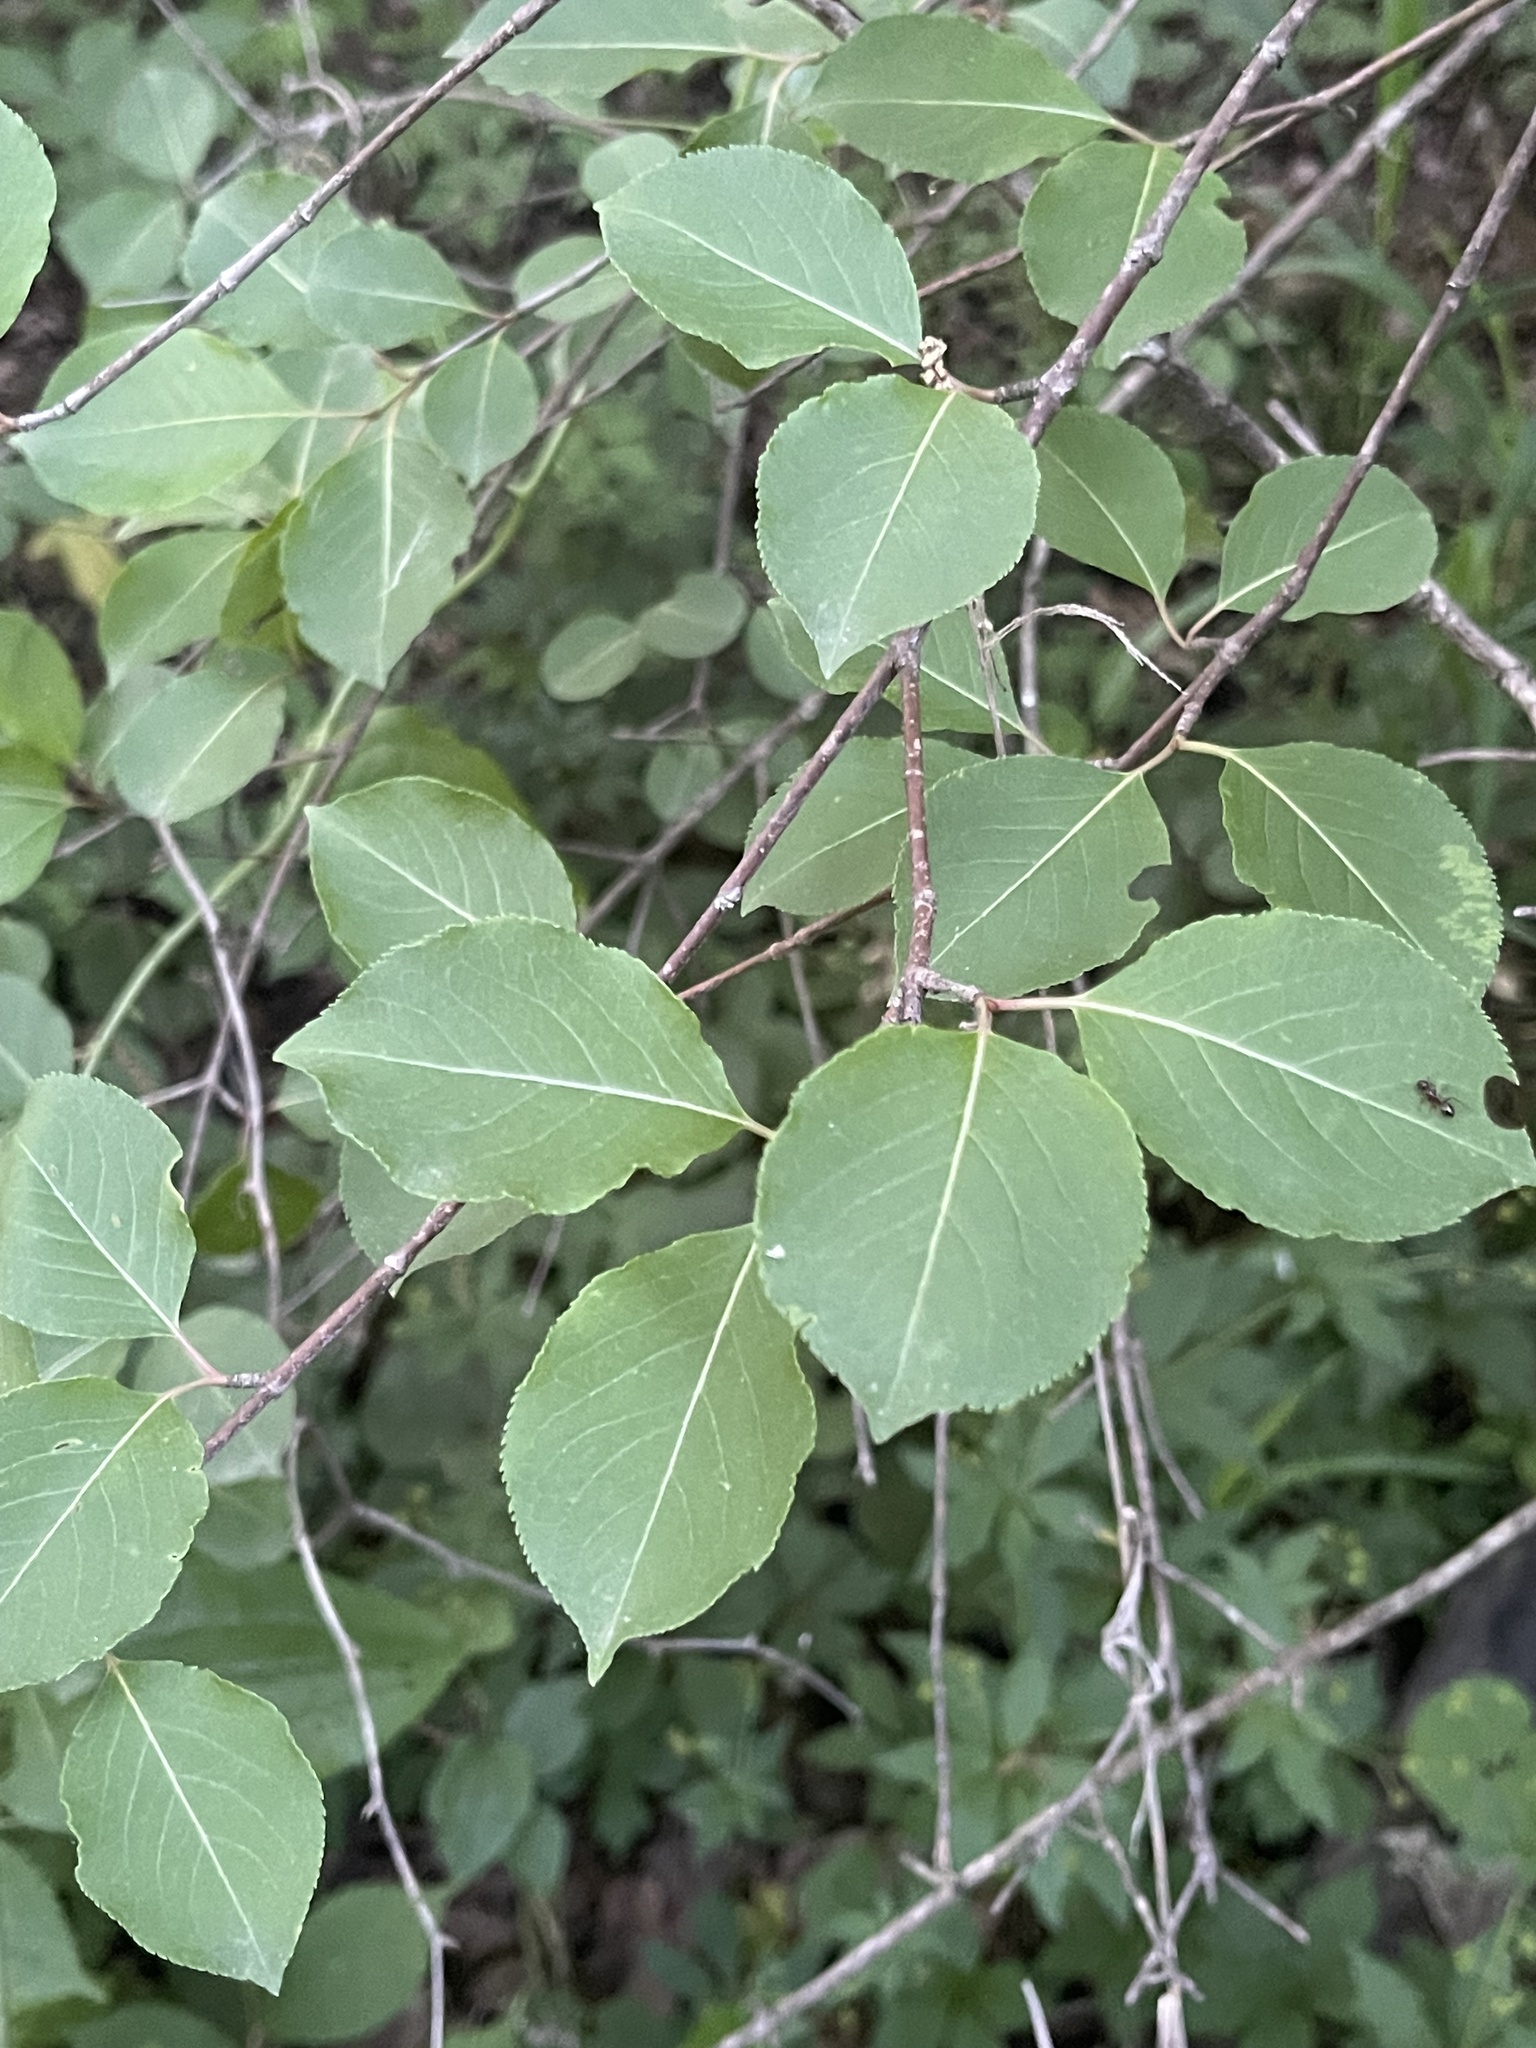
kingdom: Plantae
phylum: Tracheophyta
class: Magnoliopsida
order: Dipsacales
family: Viburnaceae
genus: Viburnum
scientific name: Viburnum prunifolium
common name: Black haw
